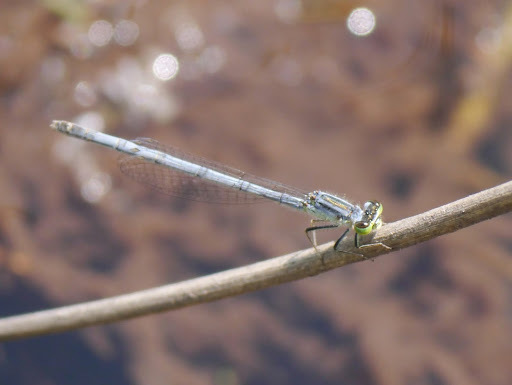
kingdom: Animalia
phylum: Arthropoda
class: Insecta
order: Odonata
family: Coenagrionidae
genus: Ischnura
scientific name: Ischnura verticalis
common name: Eastern forktail
